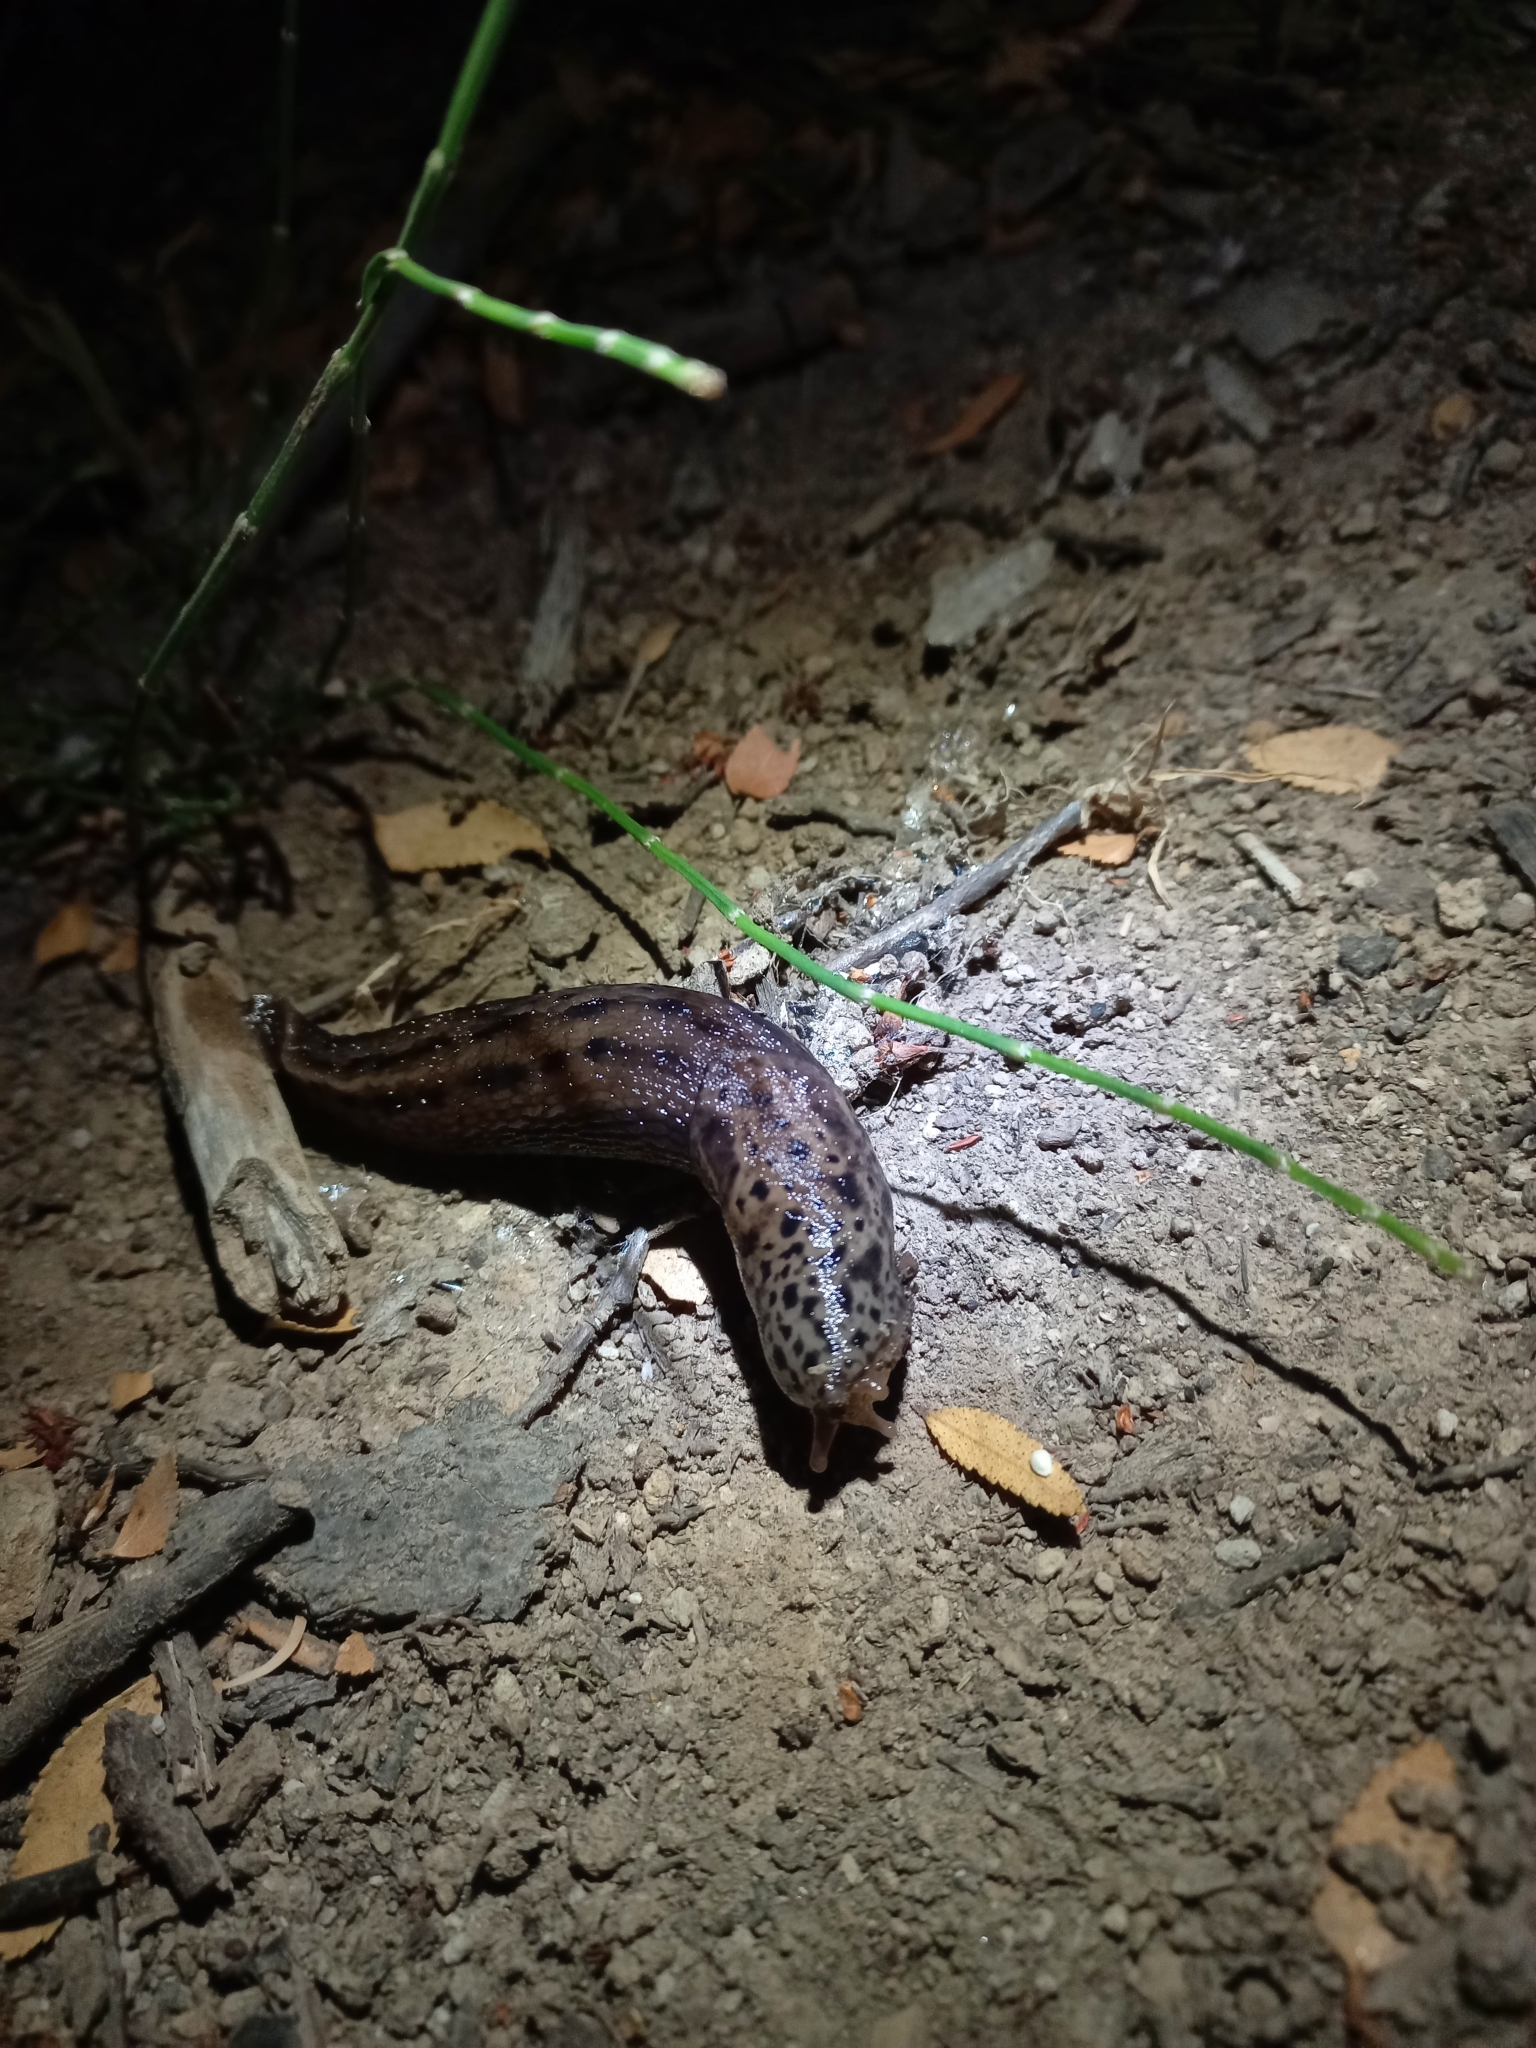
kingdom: Animalia
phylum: Mollusca
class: Gastropoda
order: Stylommatophora
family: Limacidae
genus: Limax
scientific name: Limax maximus
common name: Great grey slug
